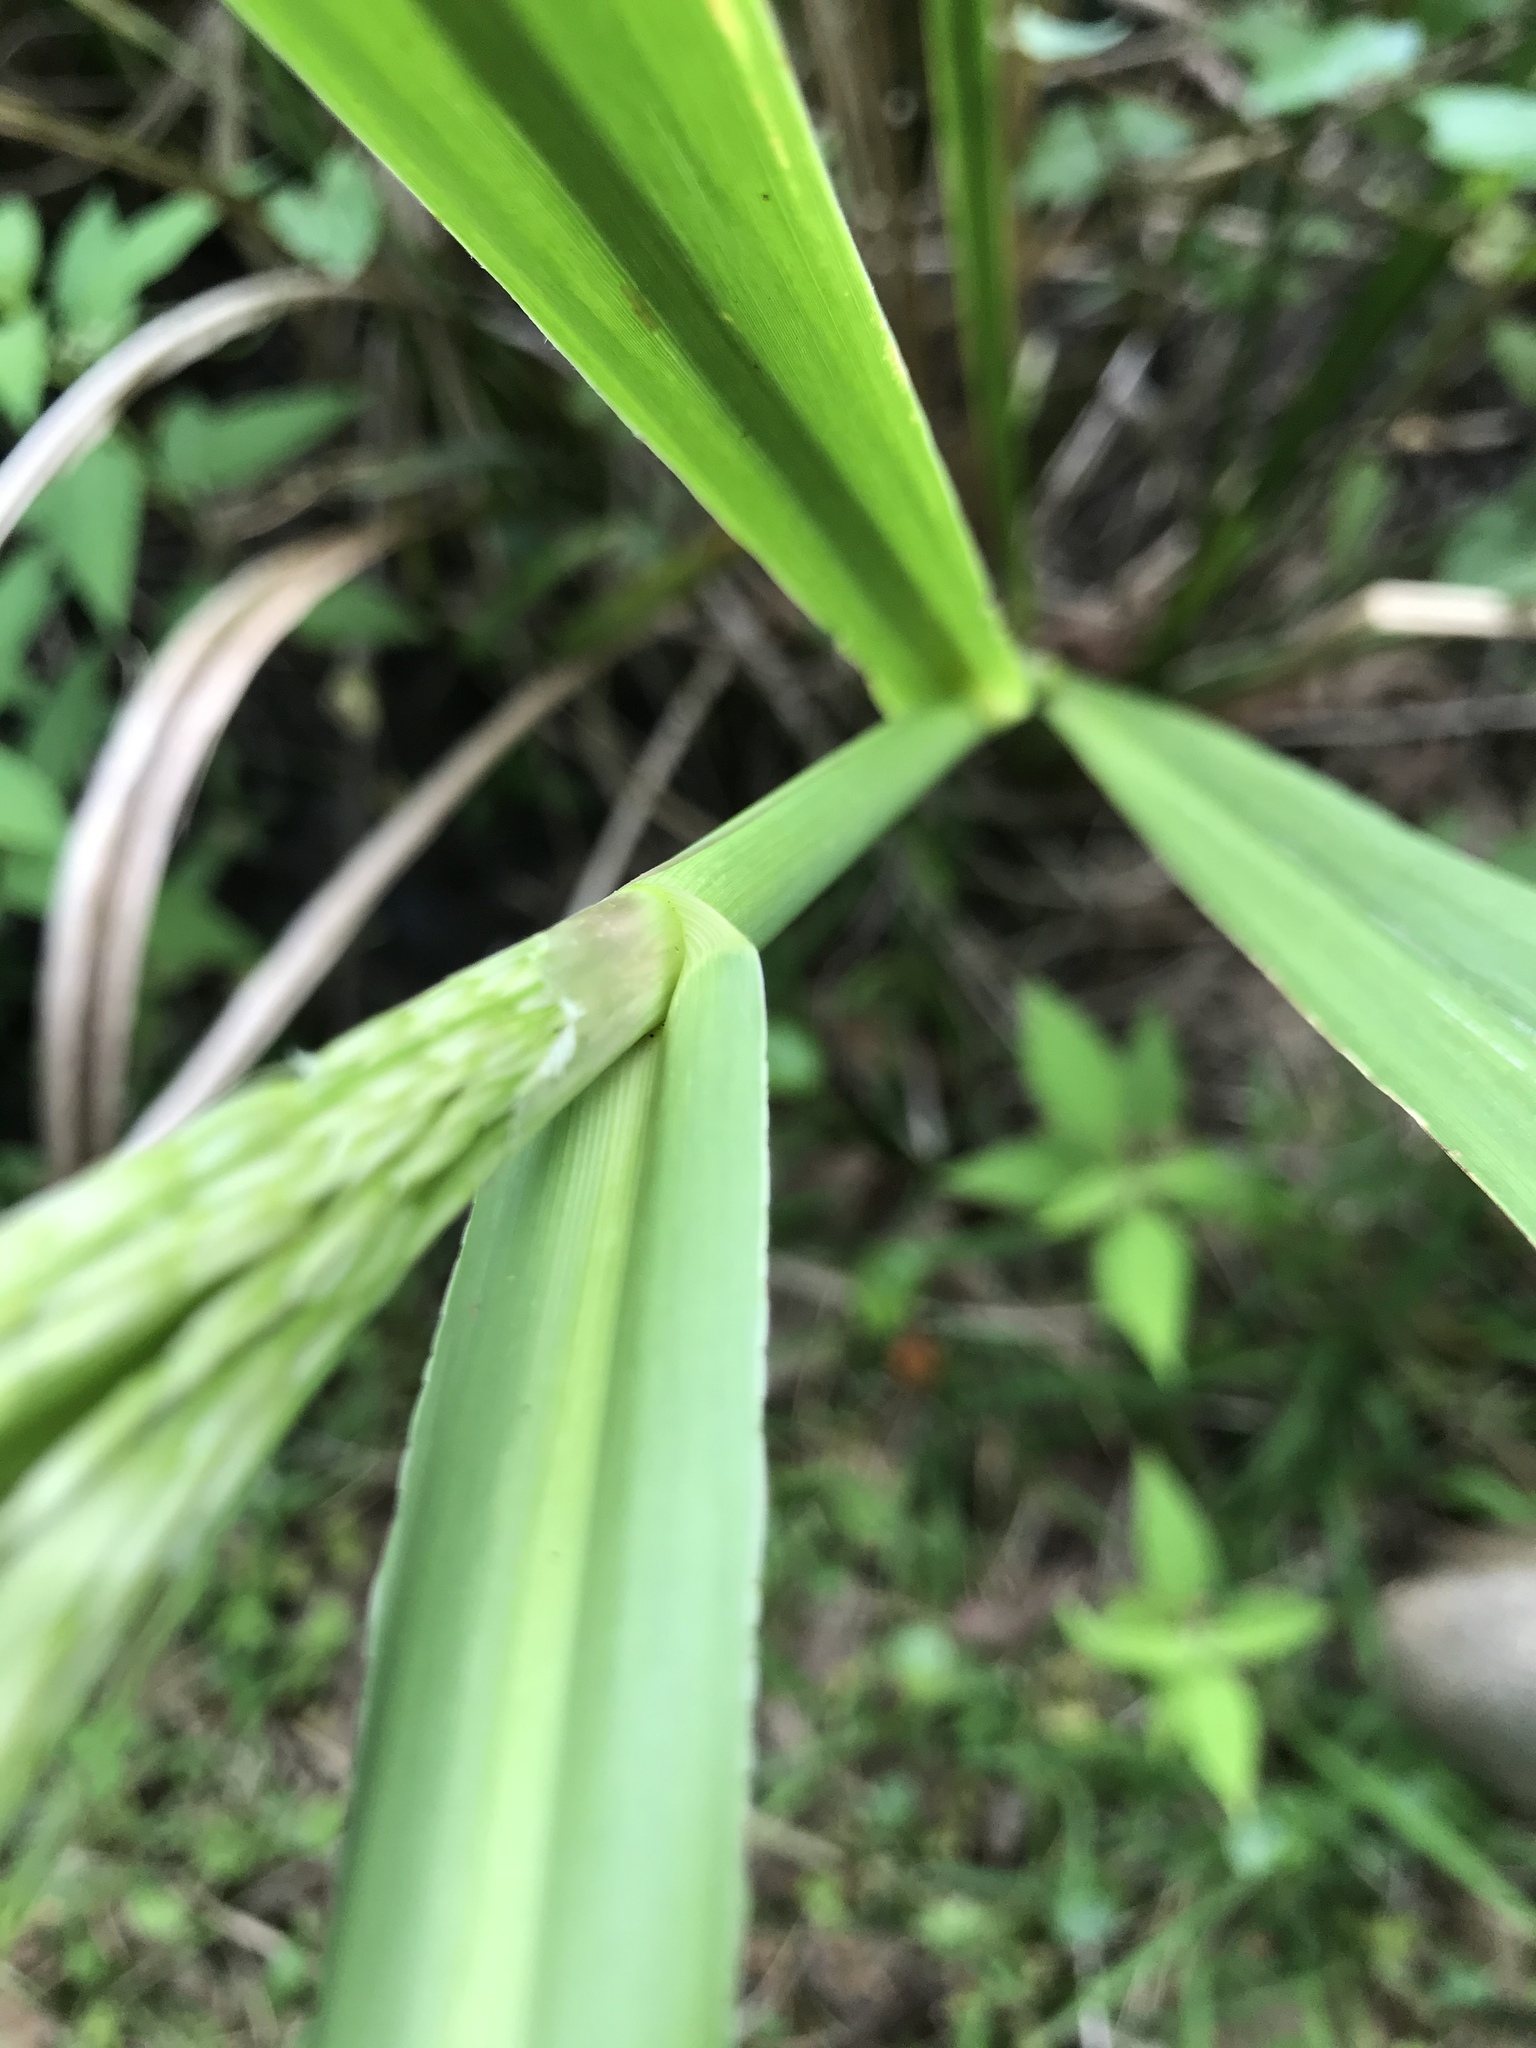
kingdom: Plantae
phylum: Tracheophyta
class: Liliopsida
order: Poales
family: Poaceae
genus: Zizaniopsis
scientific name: Zizaniopsis miliacea
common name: Giant-cutgrass
